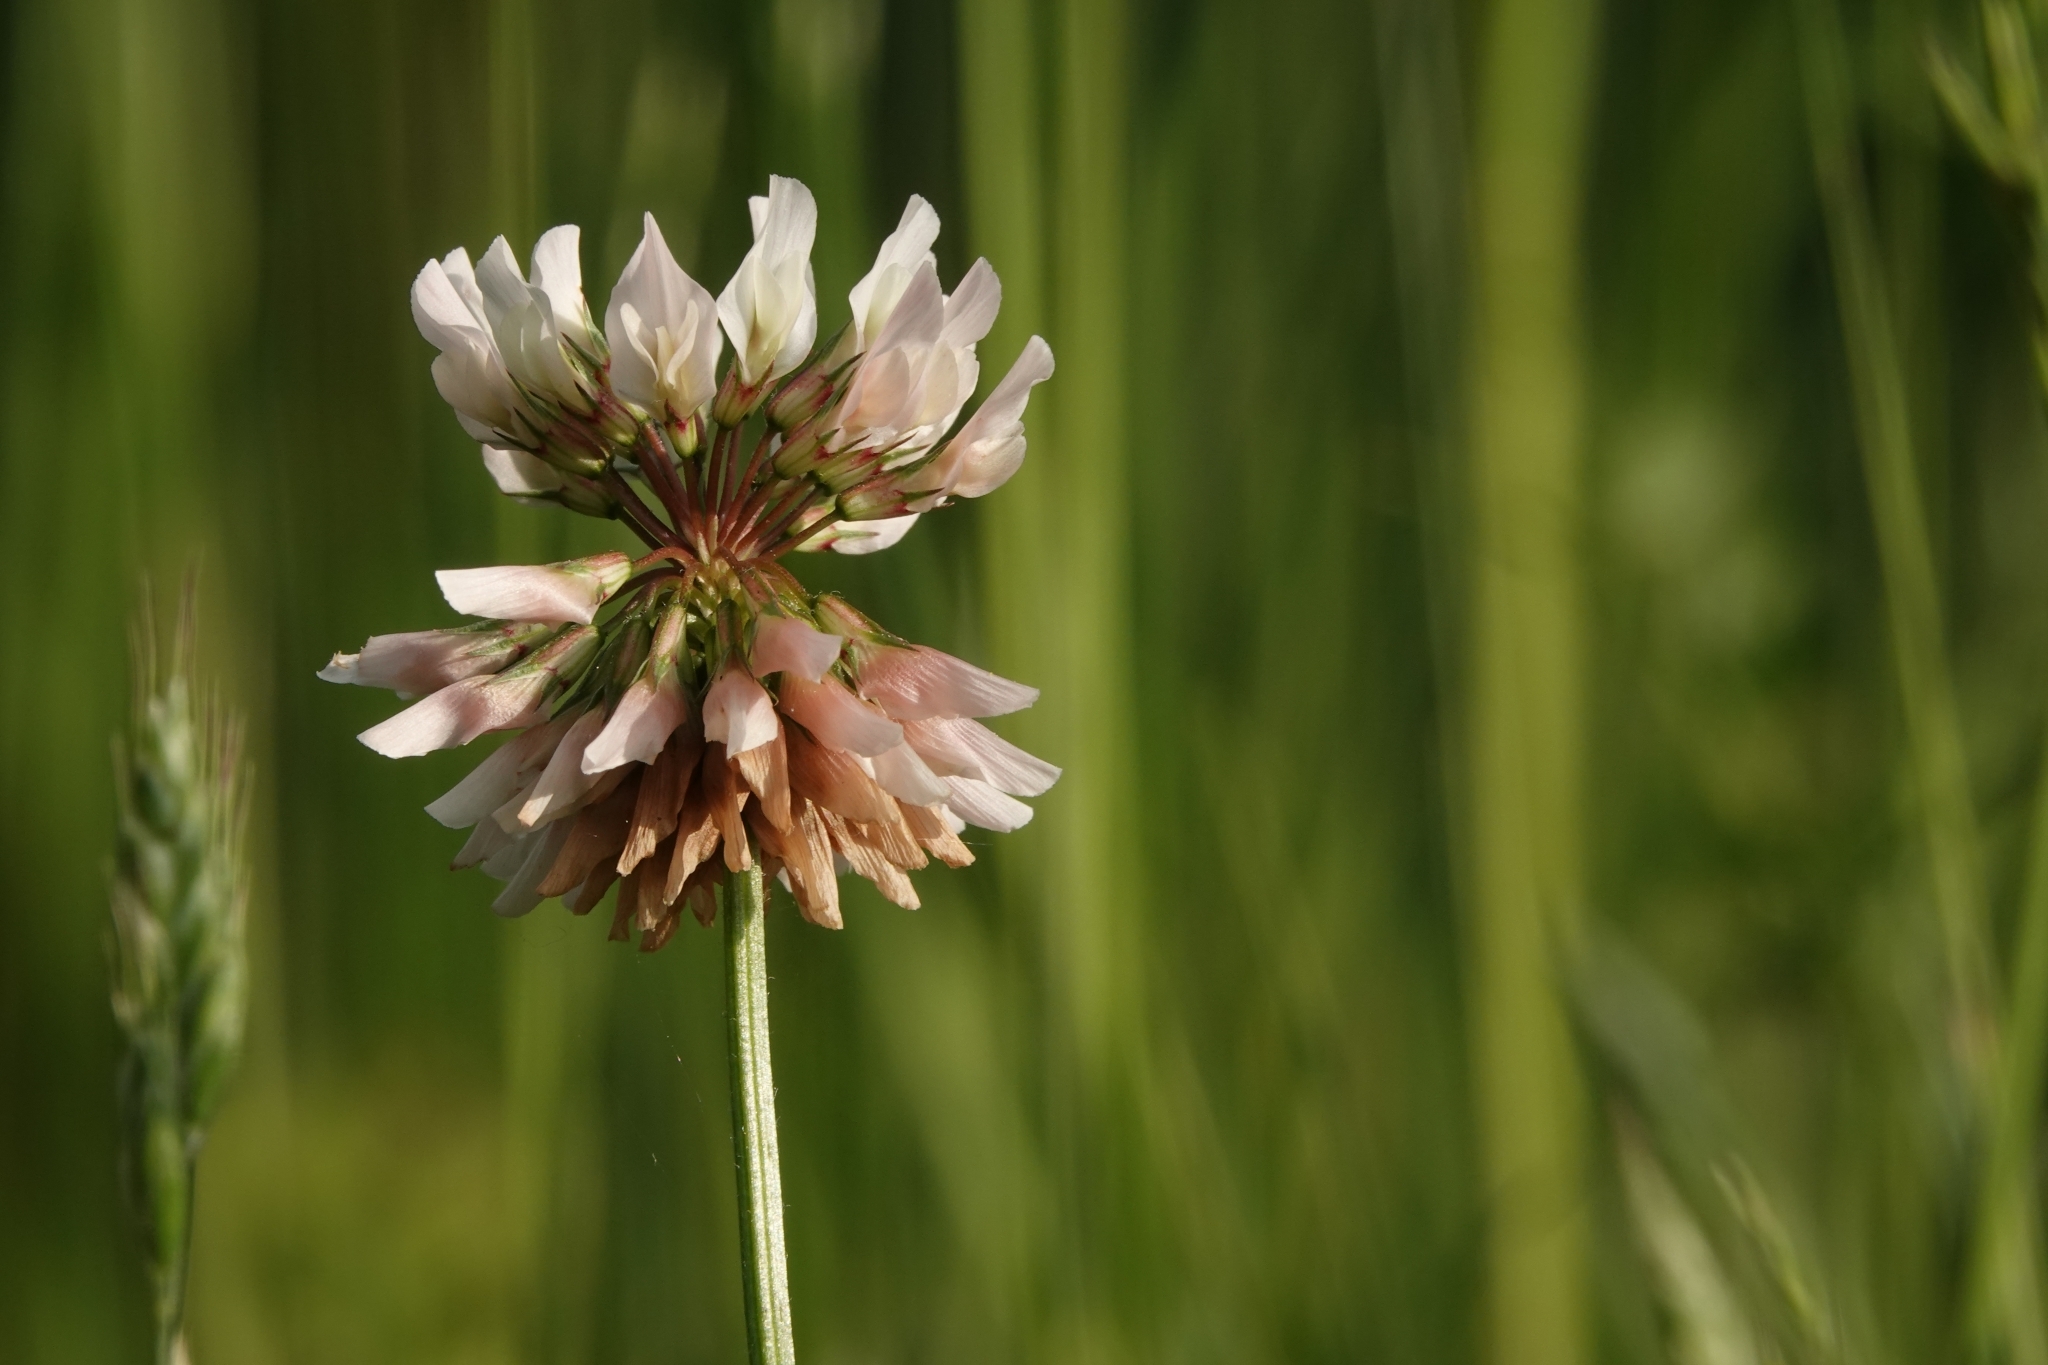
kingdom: Plantae
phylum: Tracheophyta
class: Magnoliopsida
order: Fabales
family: Fabaceae
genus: Trifolium
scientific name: Trifolium repens
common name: White clover
